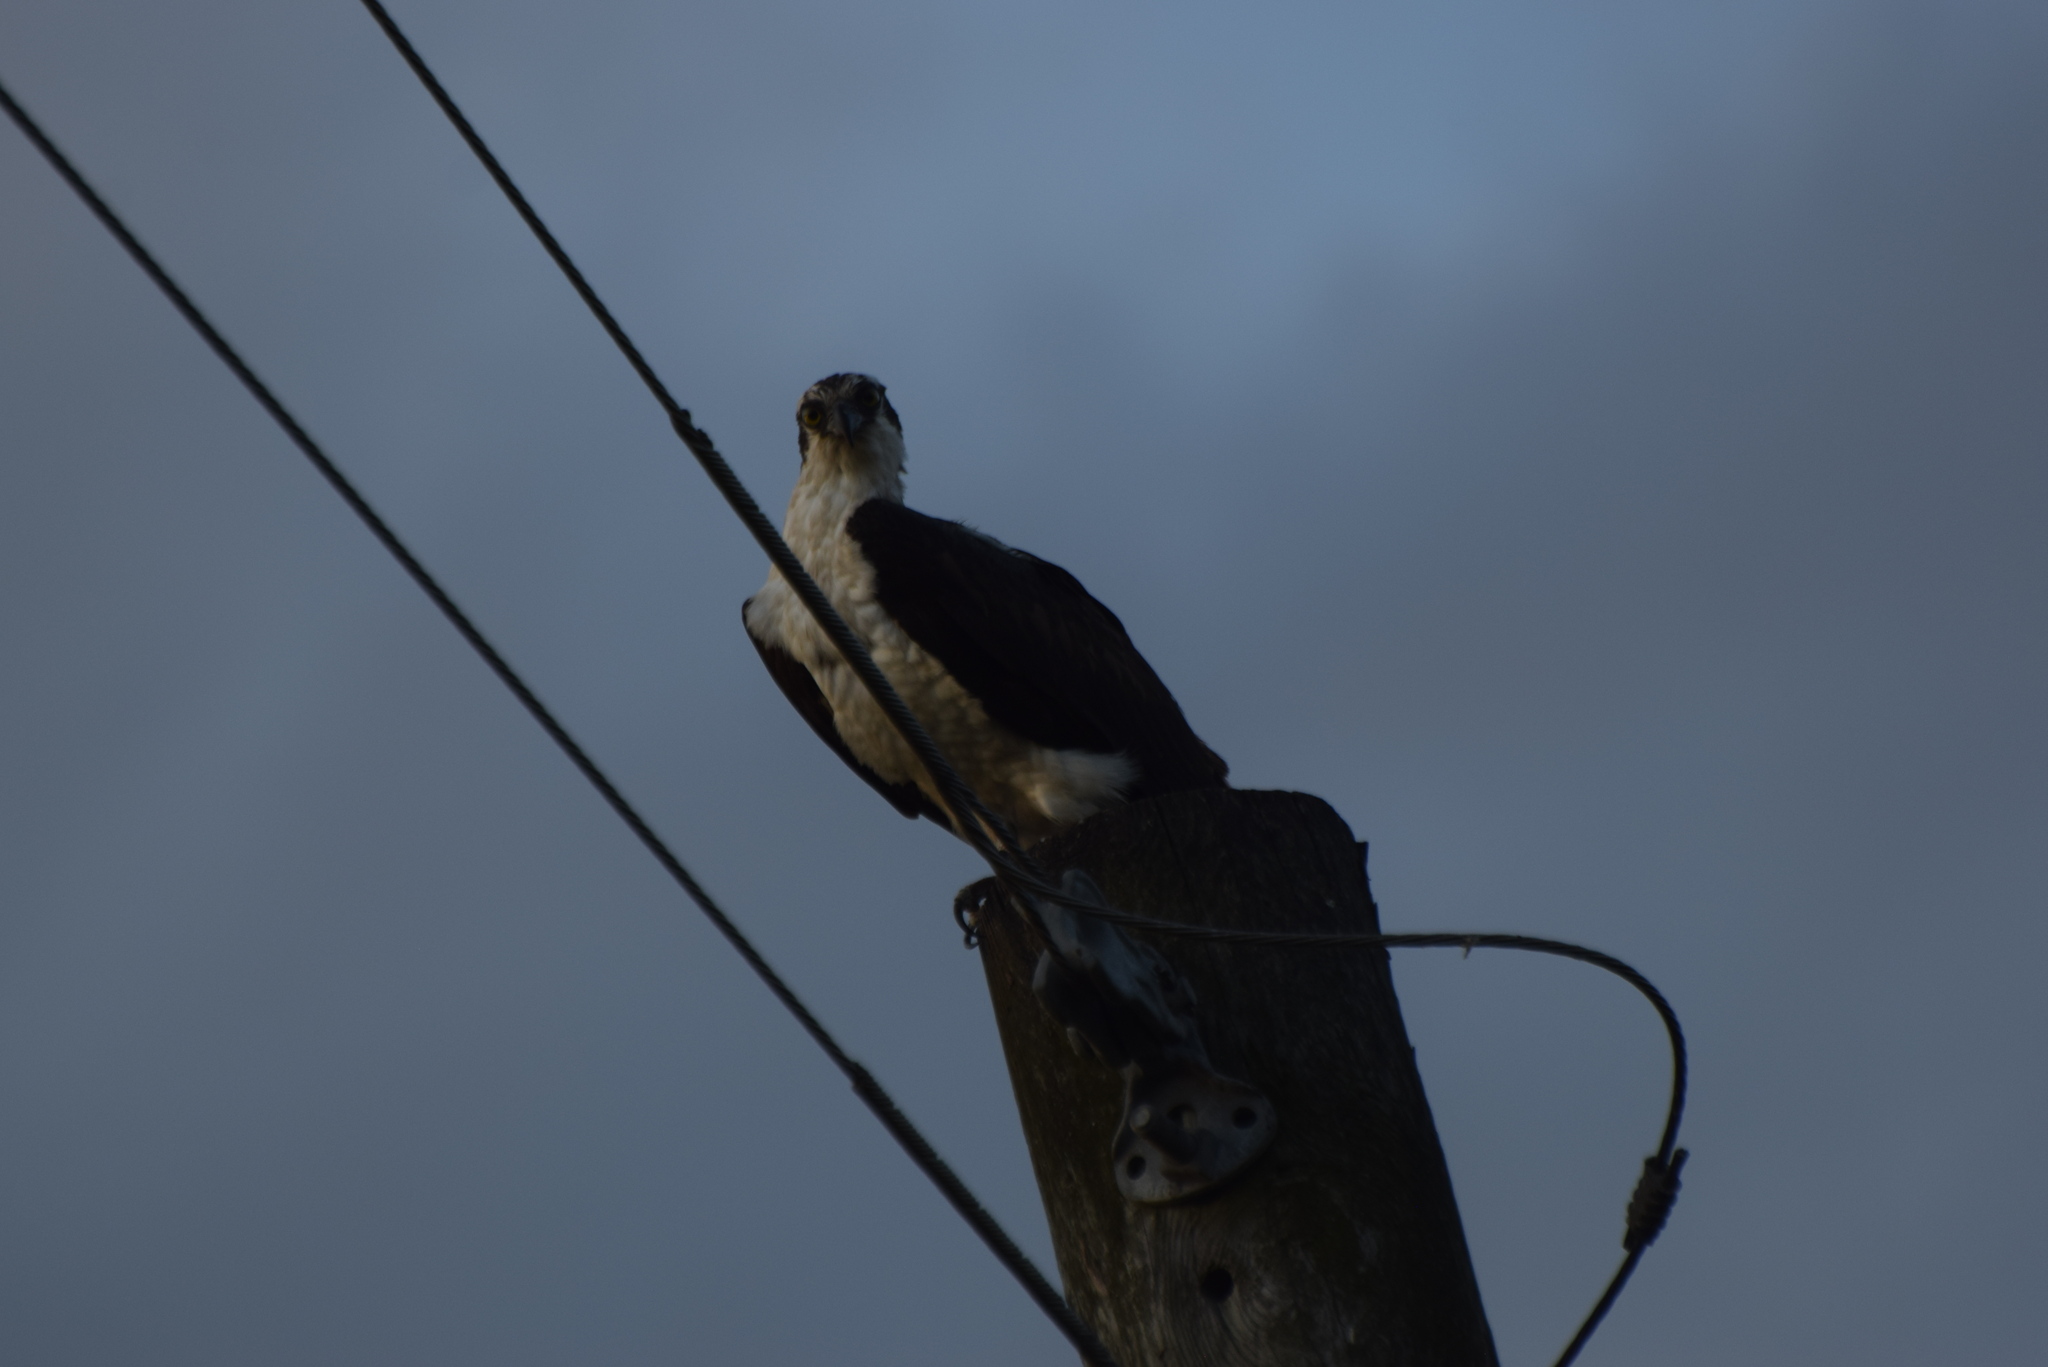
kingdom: Animalia
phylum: Chordata
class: Aves
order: Accipitriformes
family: Pandionidae
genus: Pandion
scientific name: Pandion haliaetus
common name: Osprey
